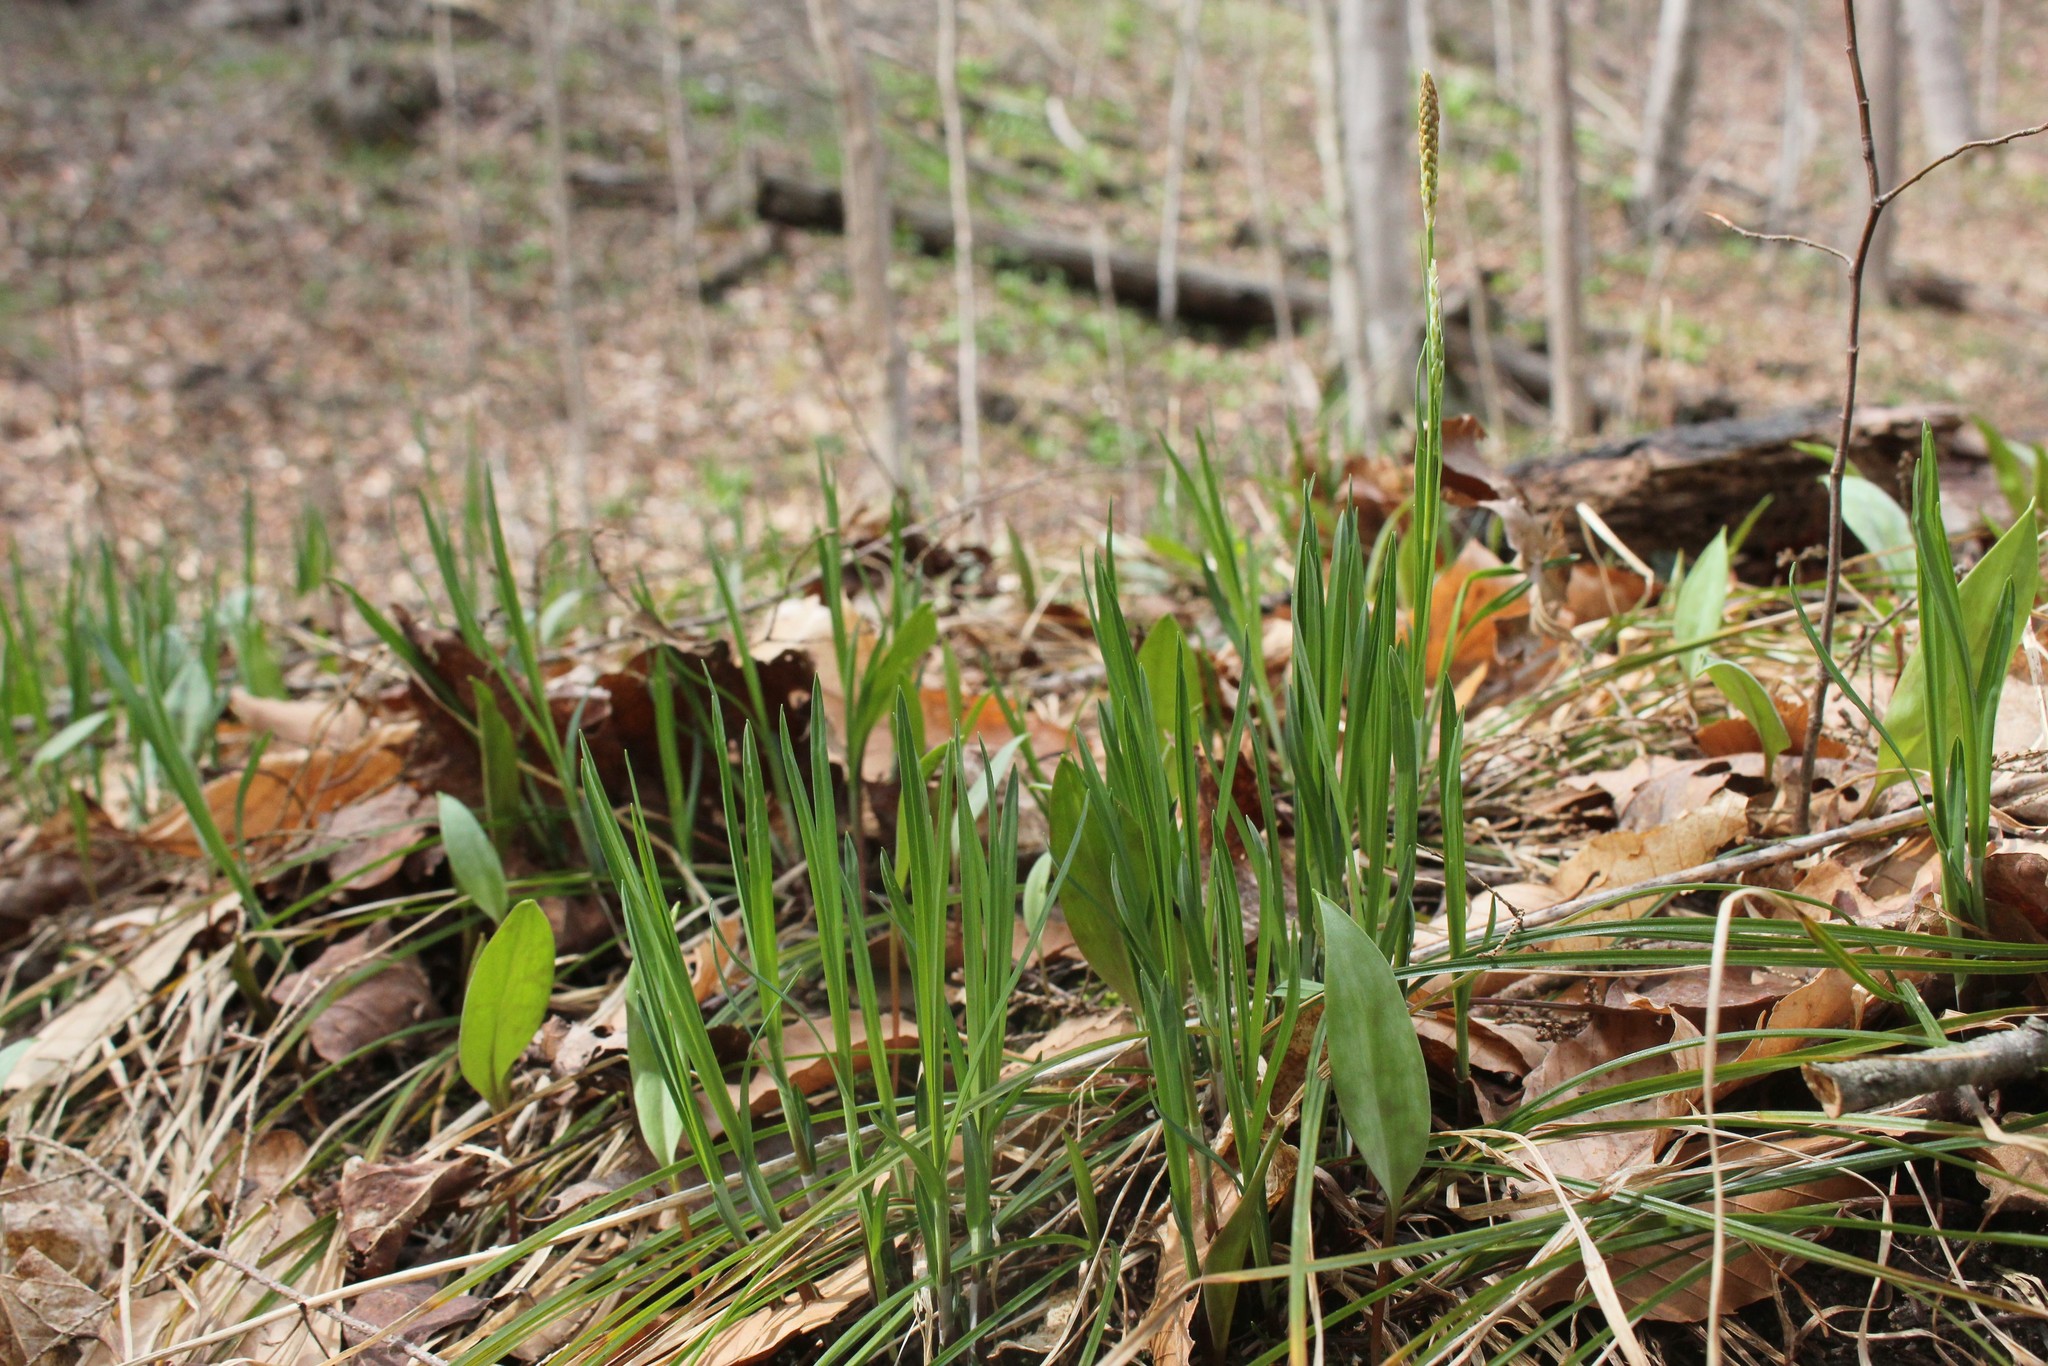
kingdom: Plantae
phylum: Tracheophyta
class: Liliopsida
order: Poales
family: Cyperaceae
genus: Carex
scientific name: Carex woodii
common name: Wood's sedge
